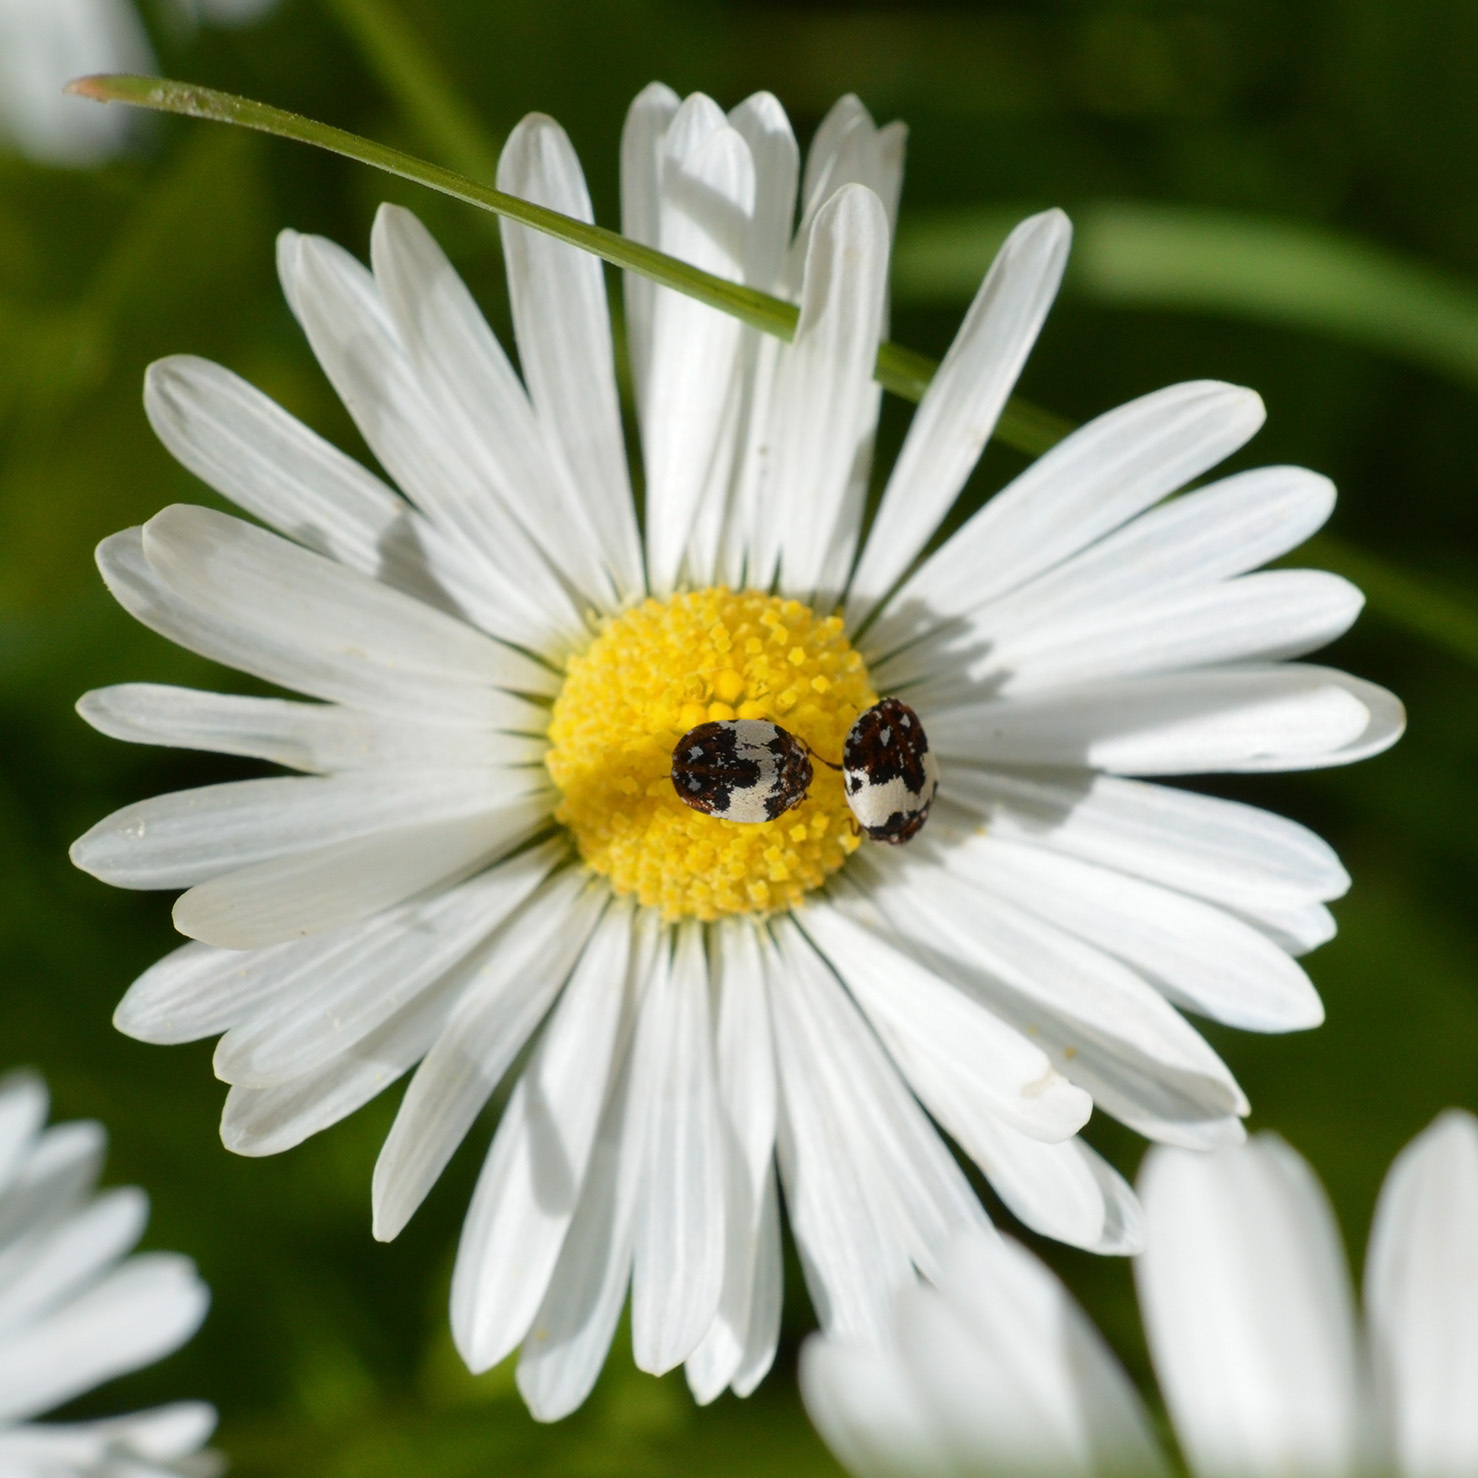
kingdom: Animalia
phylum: Arthropoda
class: Insecta
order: Coleoptera
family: Dermestidae
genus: Anthrenus
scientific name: Anthrenus pimpinellae
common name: Dermestid beetle
